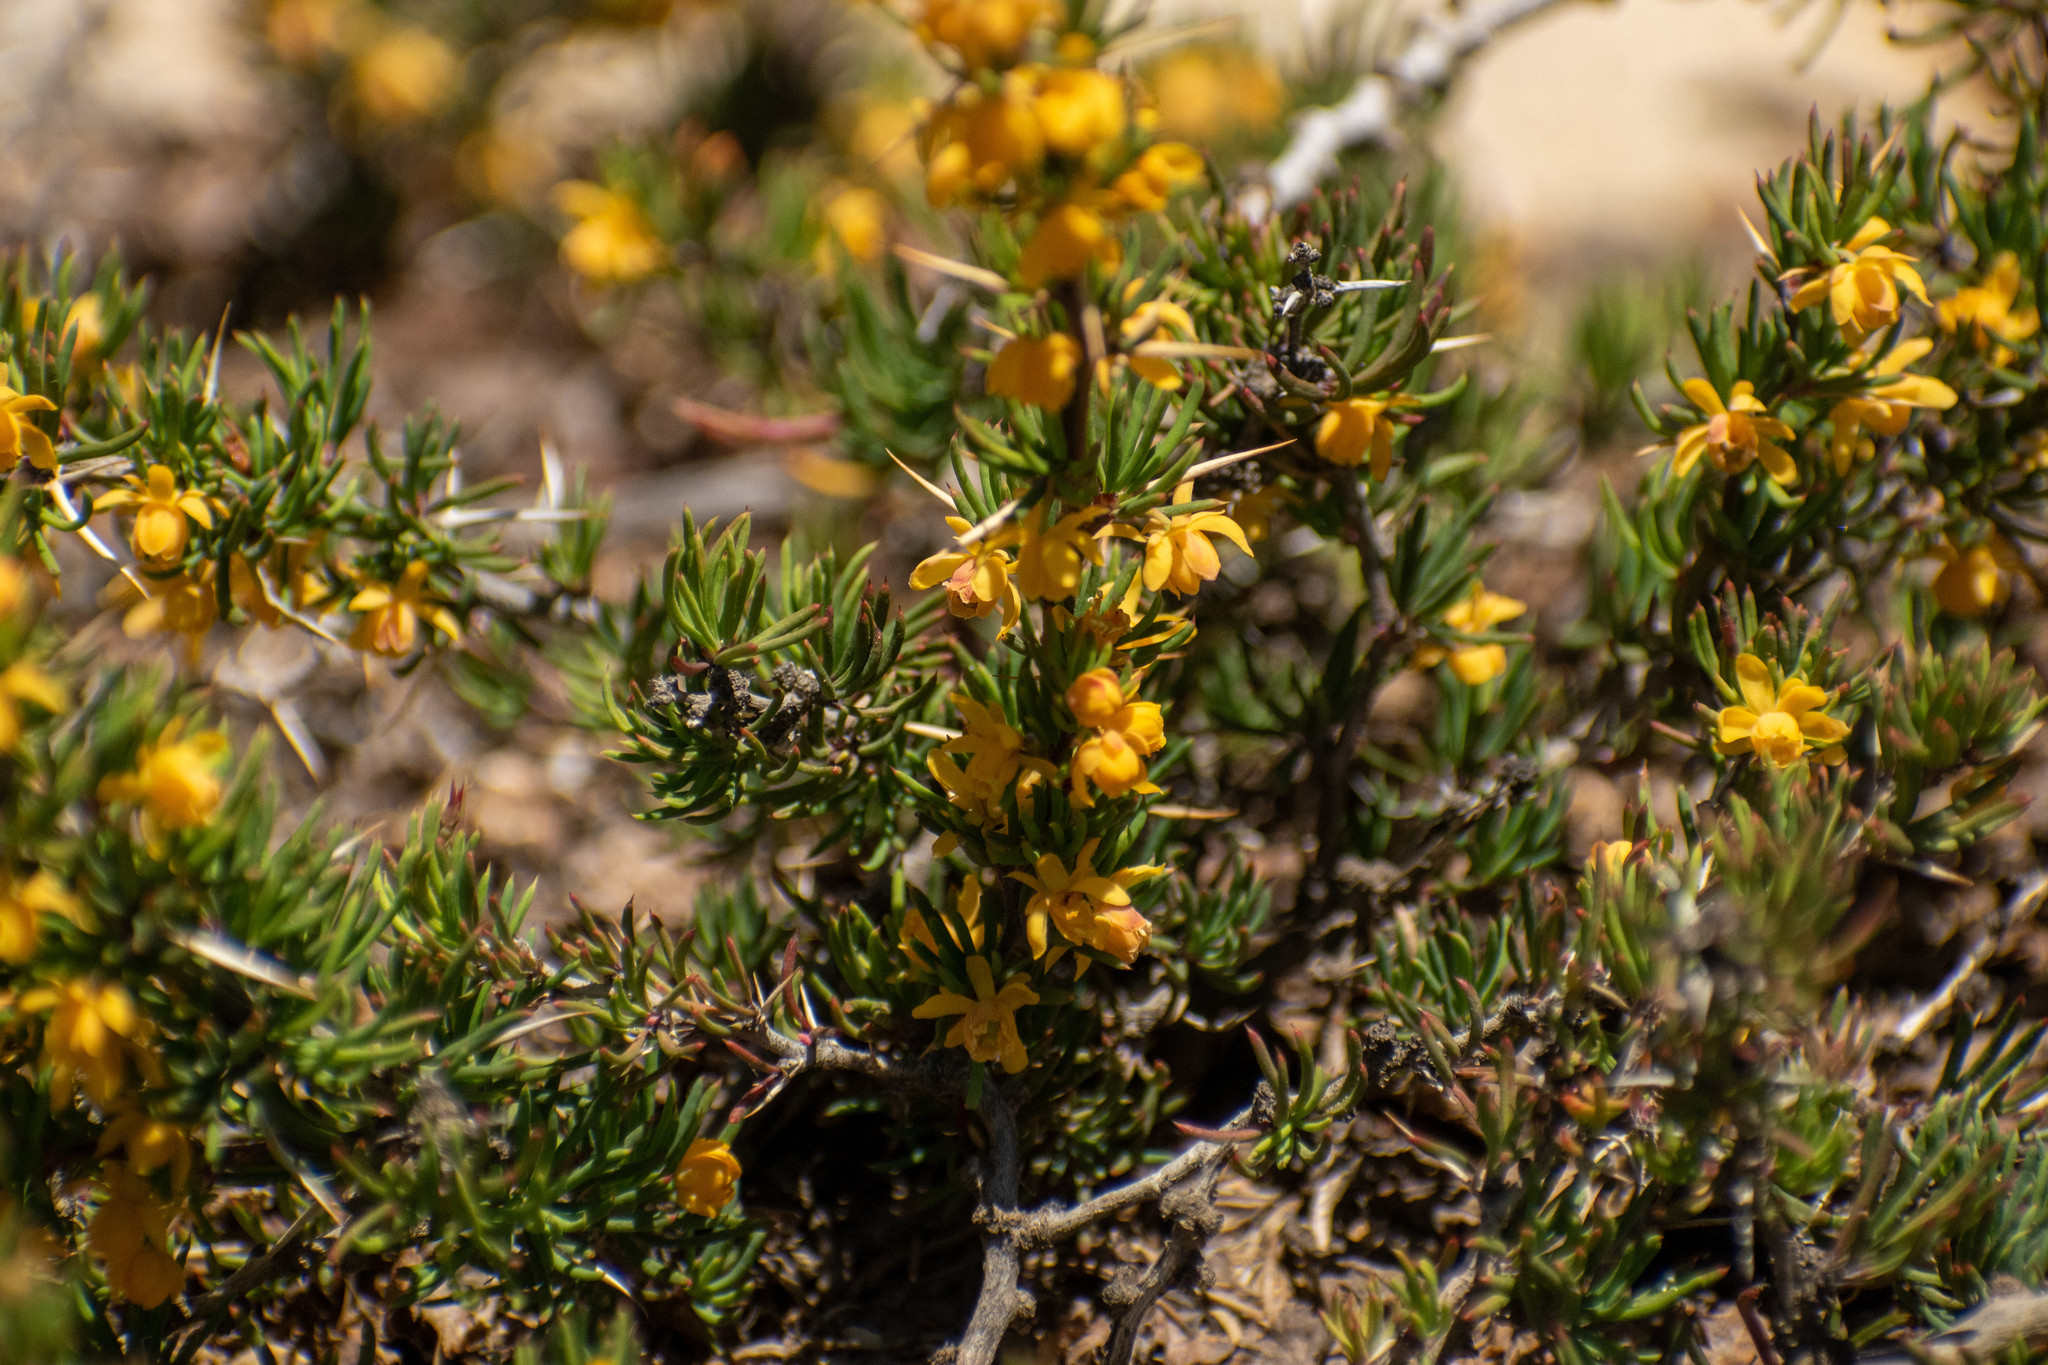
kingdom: Plantae
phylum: Tracheophyta
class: Magnoliopsida
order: Ranunculales
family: Berberidaceae
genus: Berberis
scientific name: Berberis empetrifolia
